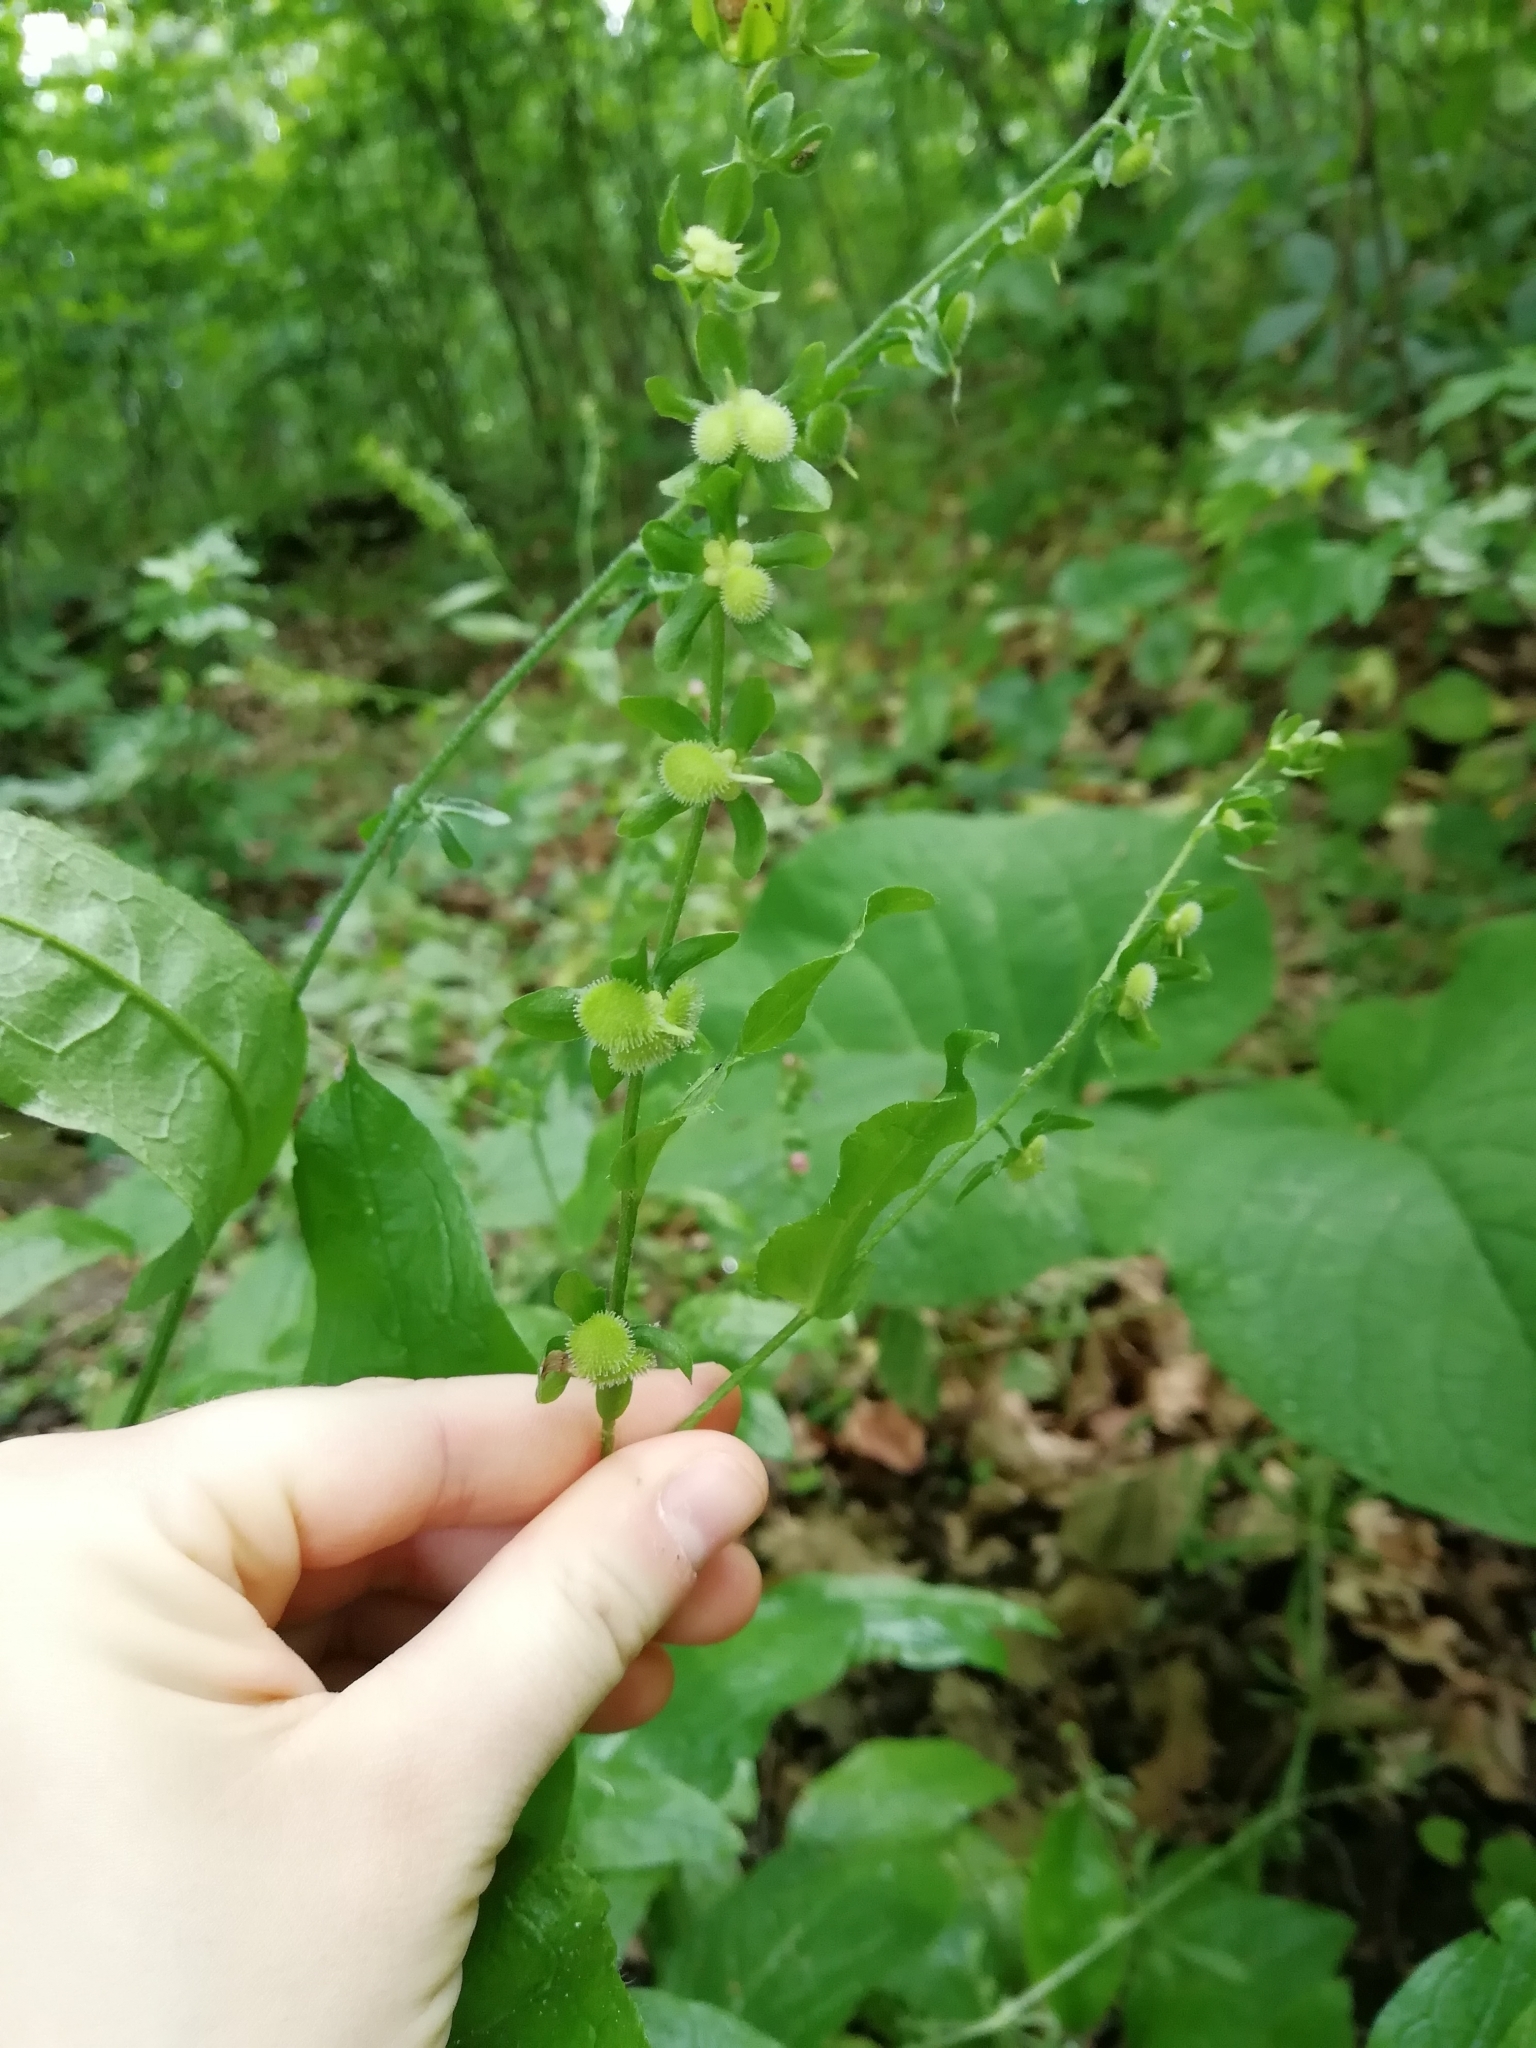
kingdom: Plantae
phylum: Tracheophyta
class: Magnoliopsida
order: Boraginales
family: Boraginaceae
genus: Cynoglossum
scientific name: Cynoglossum officinale
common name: Hound's-tongue
